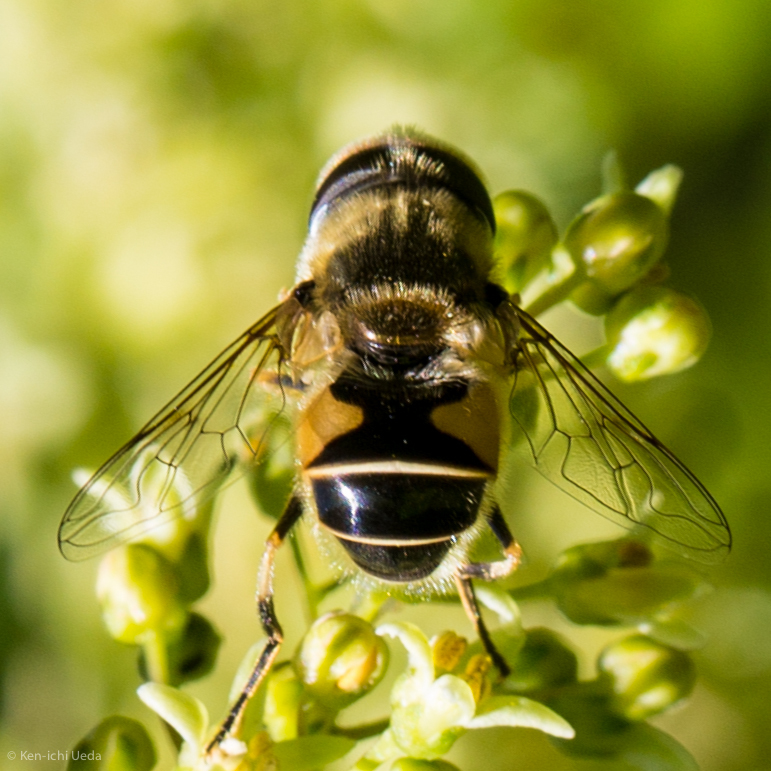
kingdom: Animalia
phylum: Arthropoda
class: Insecta
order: Diptera
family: Syrphidae
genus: Eristalis
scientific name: Eristalis hirta
